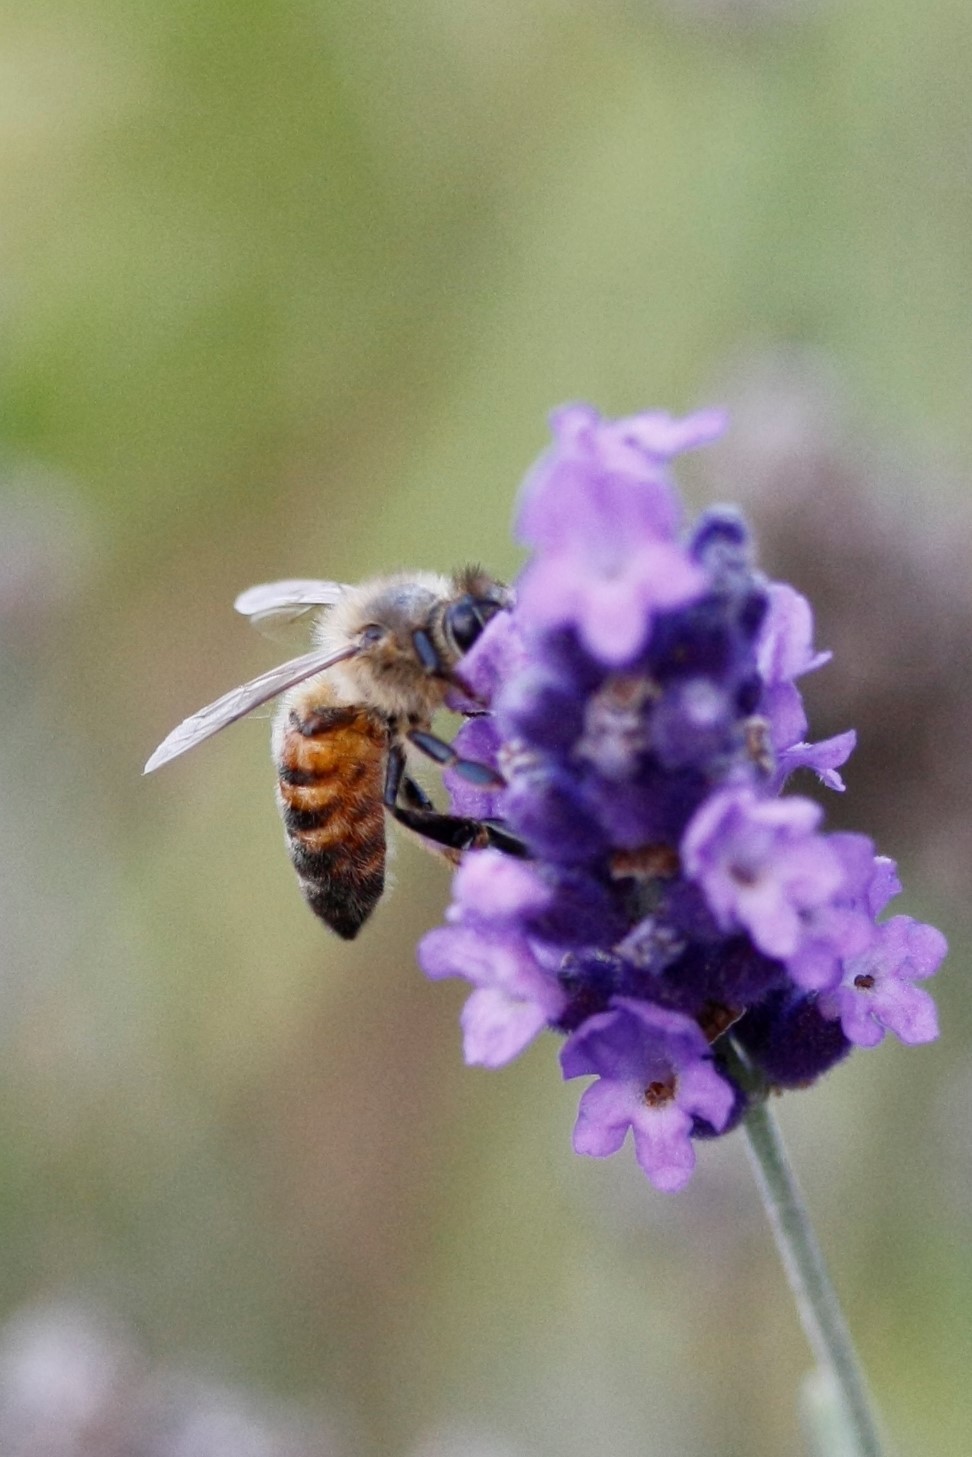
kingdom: Animalia
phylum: Arthropoda
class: Insecta
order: Hymenoptera
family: Apidae
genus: Apis
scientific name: Apis mellifera
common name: Honey bee
